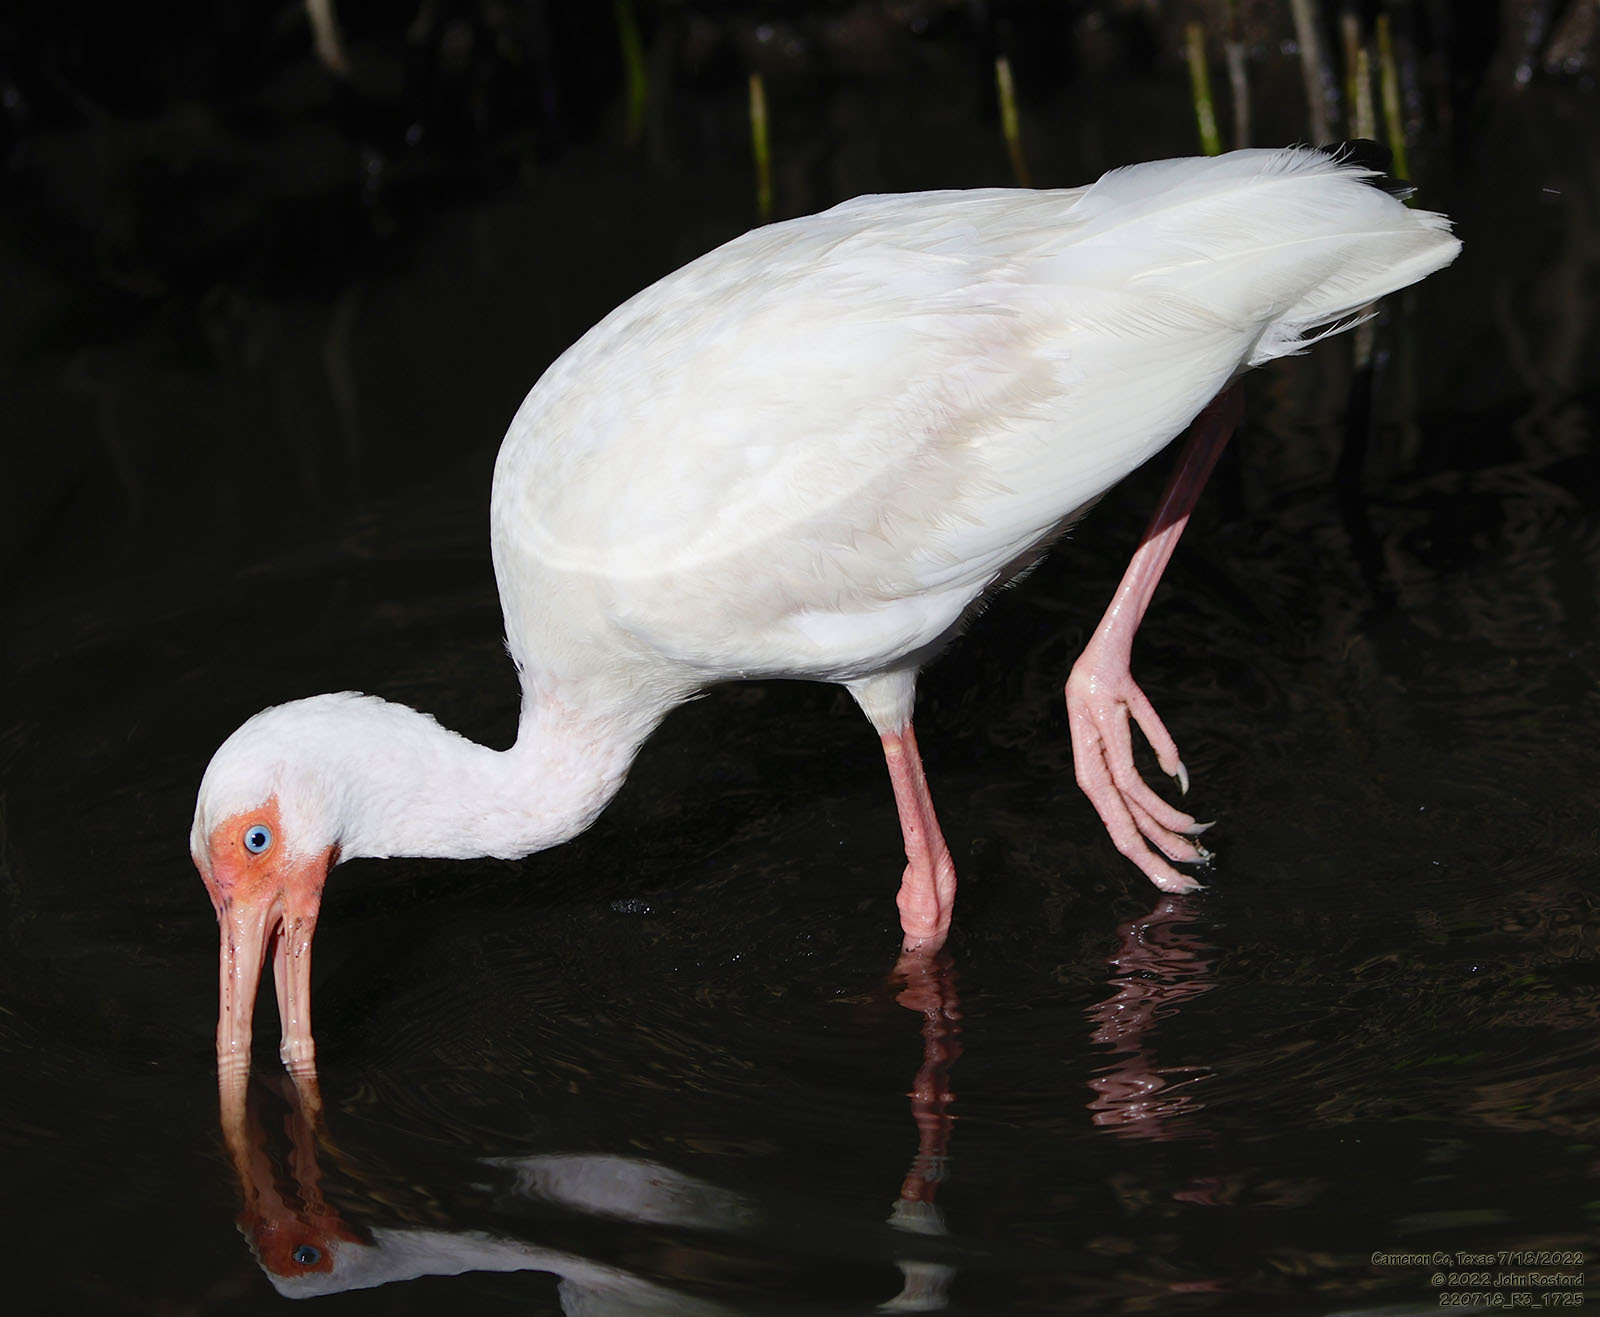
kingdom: Animalia
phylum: Chordata
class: Aves
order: Pelecaniformes
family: Threskiornithidae
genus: Eudocimus
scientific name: Eudocimus albus
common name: White ibis
